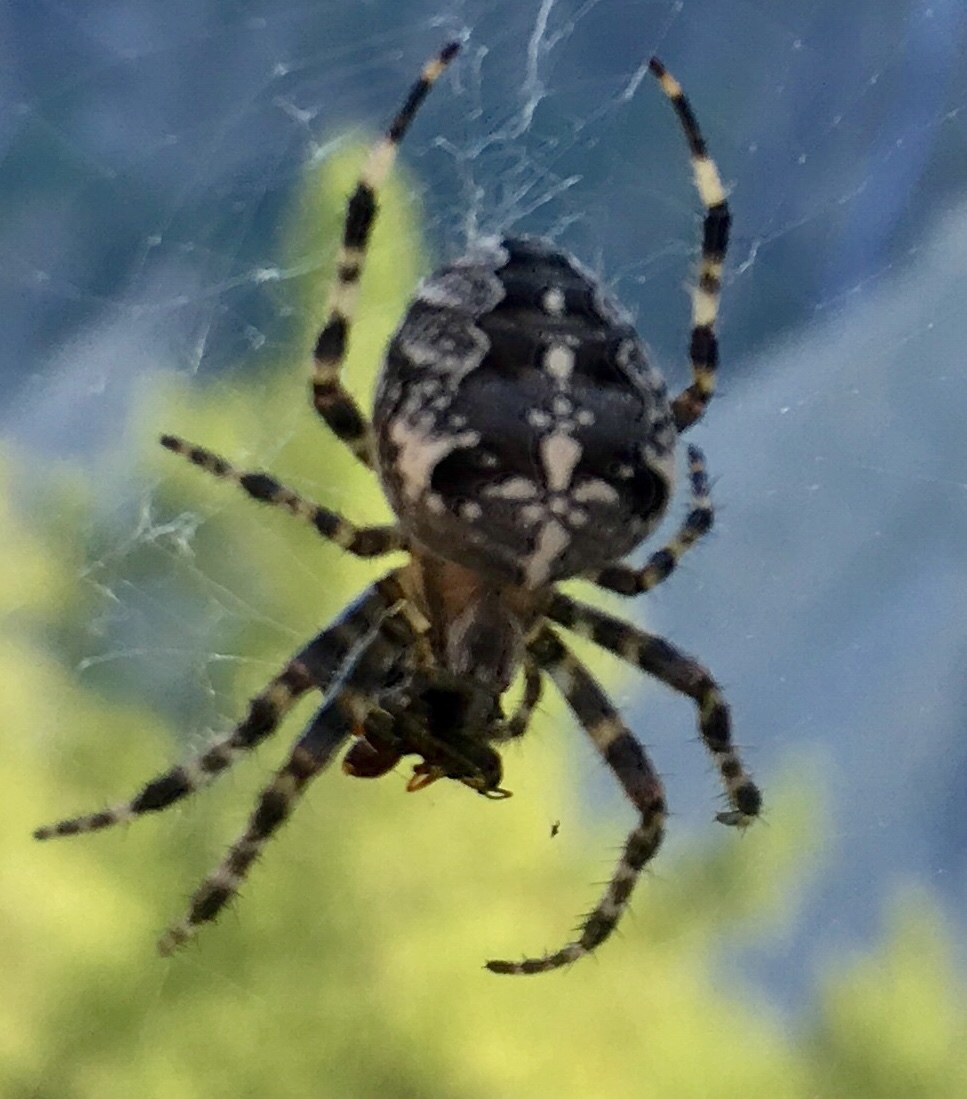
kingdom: Animalia
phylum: Arthropoda
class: Arachnida
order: Araneae
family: Araneidae
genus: Araneus
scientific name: Araneus diadematus
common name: Cross orbweaver
